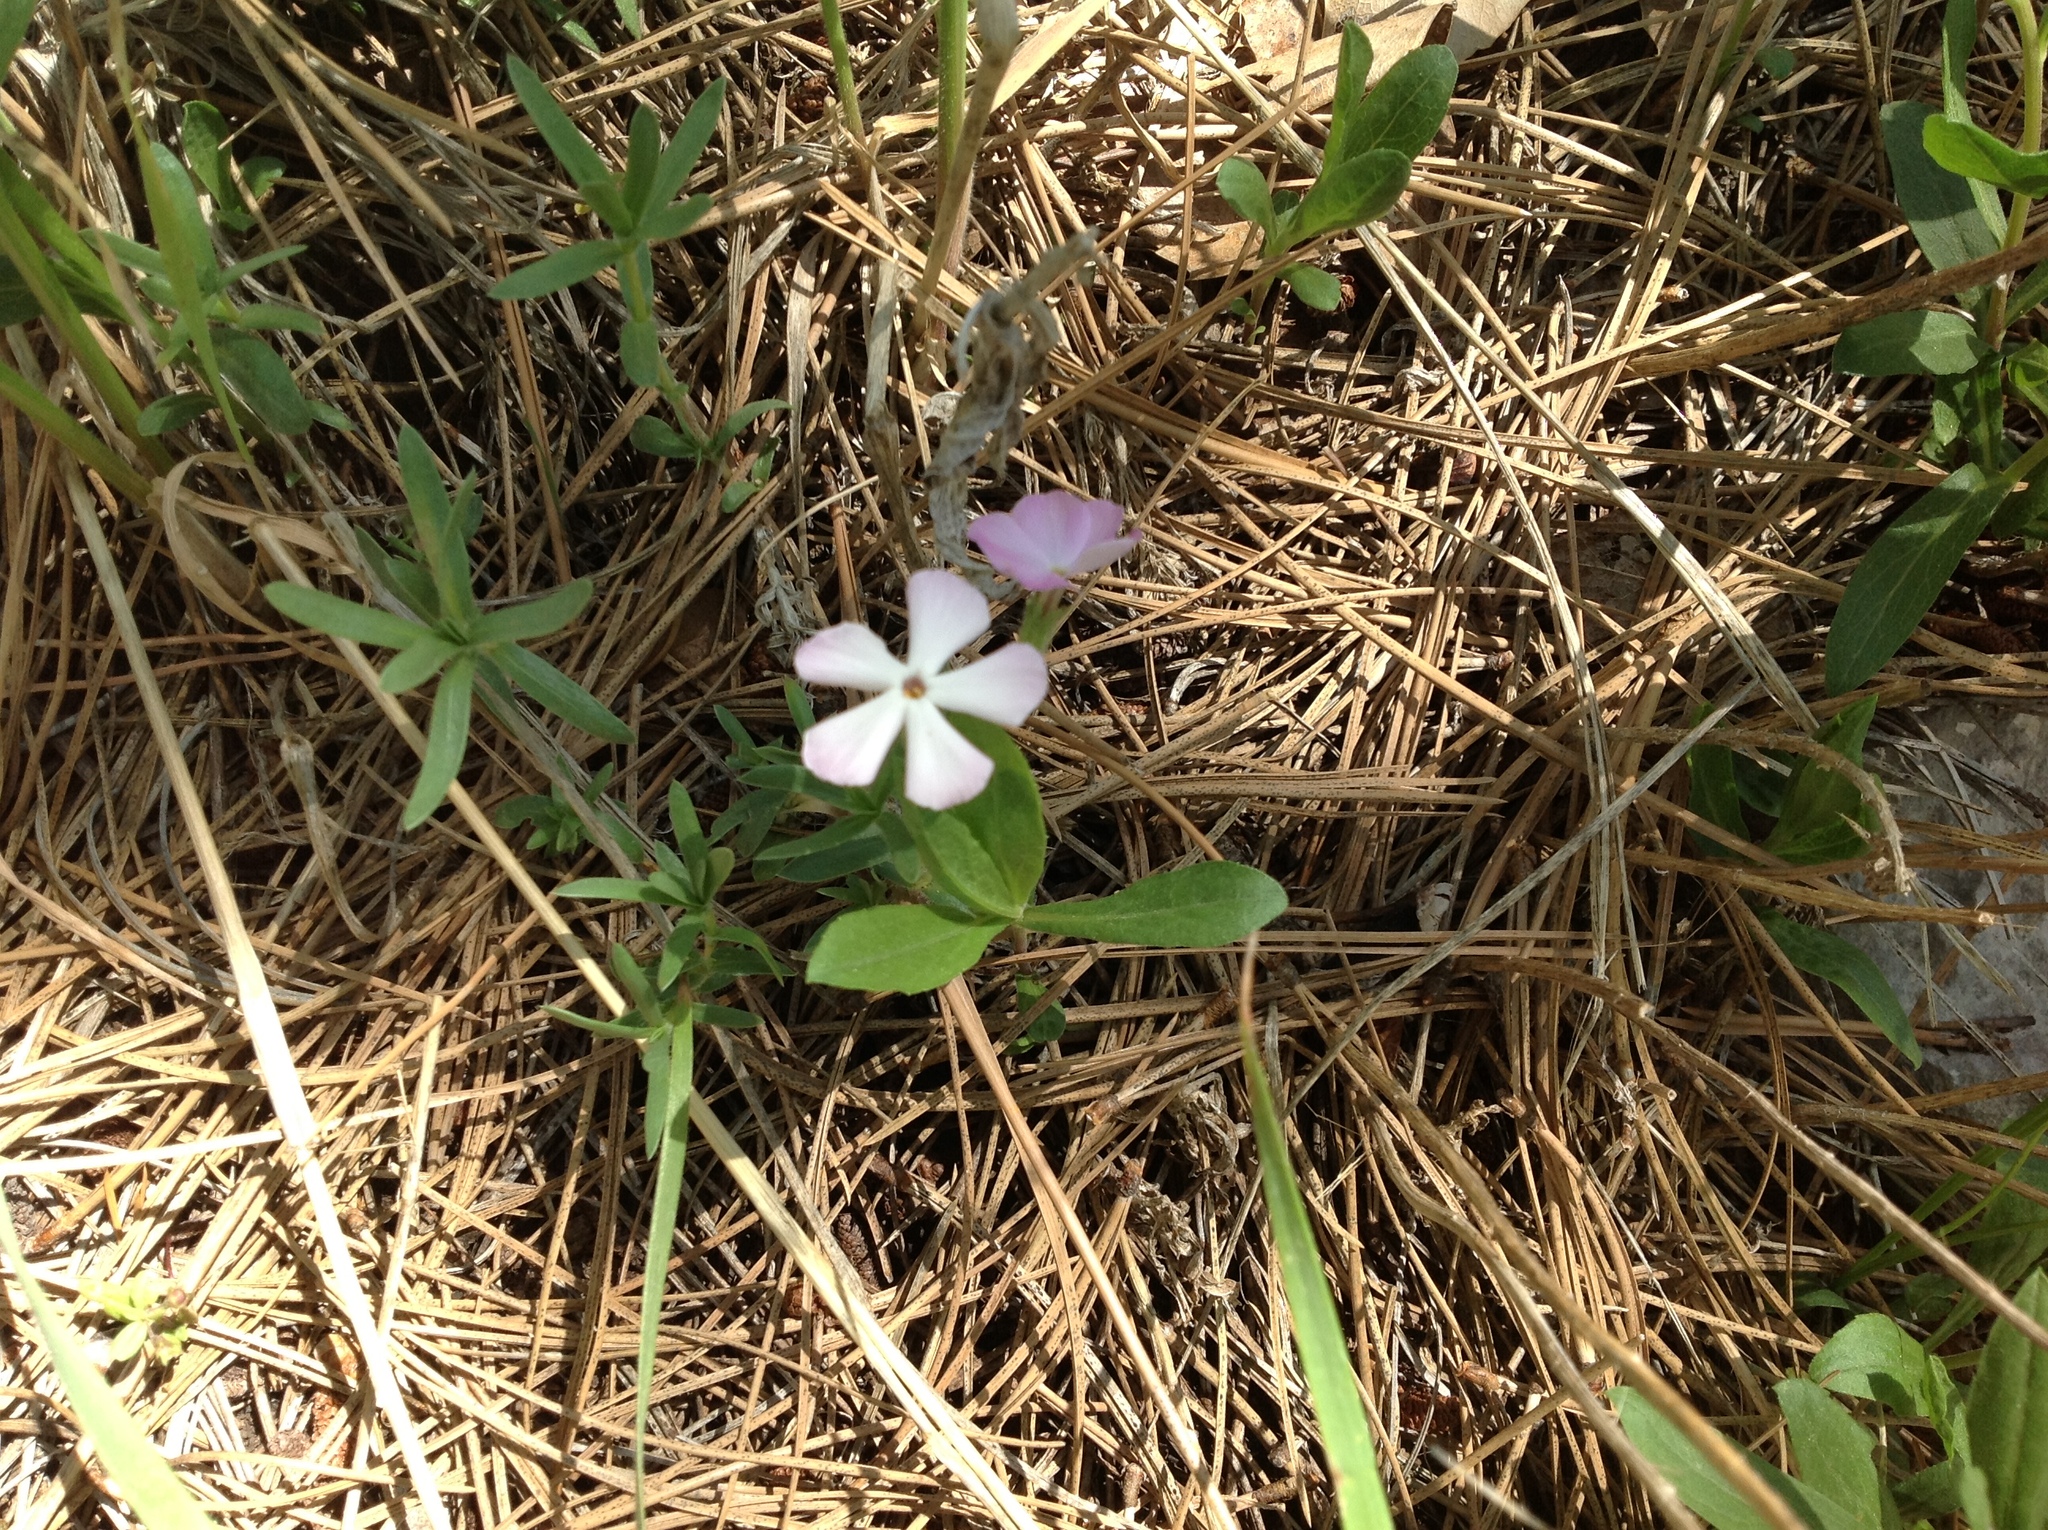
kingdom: Plantae
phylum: Tracheophyta
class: Magnoliopsida
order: Ericales
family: Polemoniaceae
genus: Phlox
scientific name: Phlox alyssifolia
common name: Blue phlox
